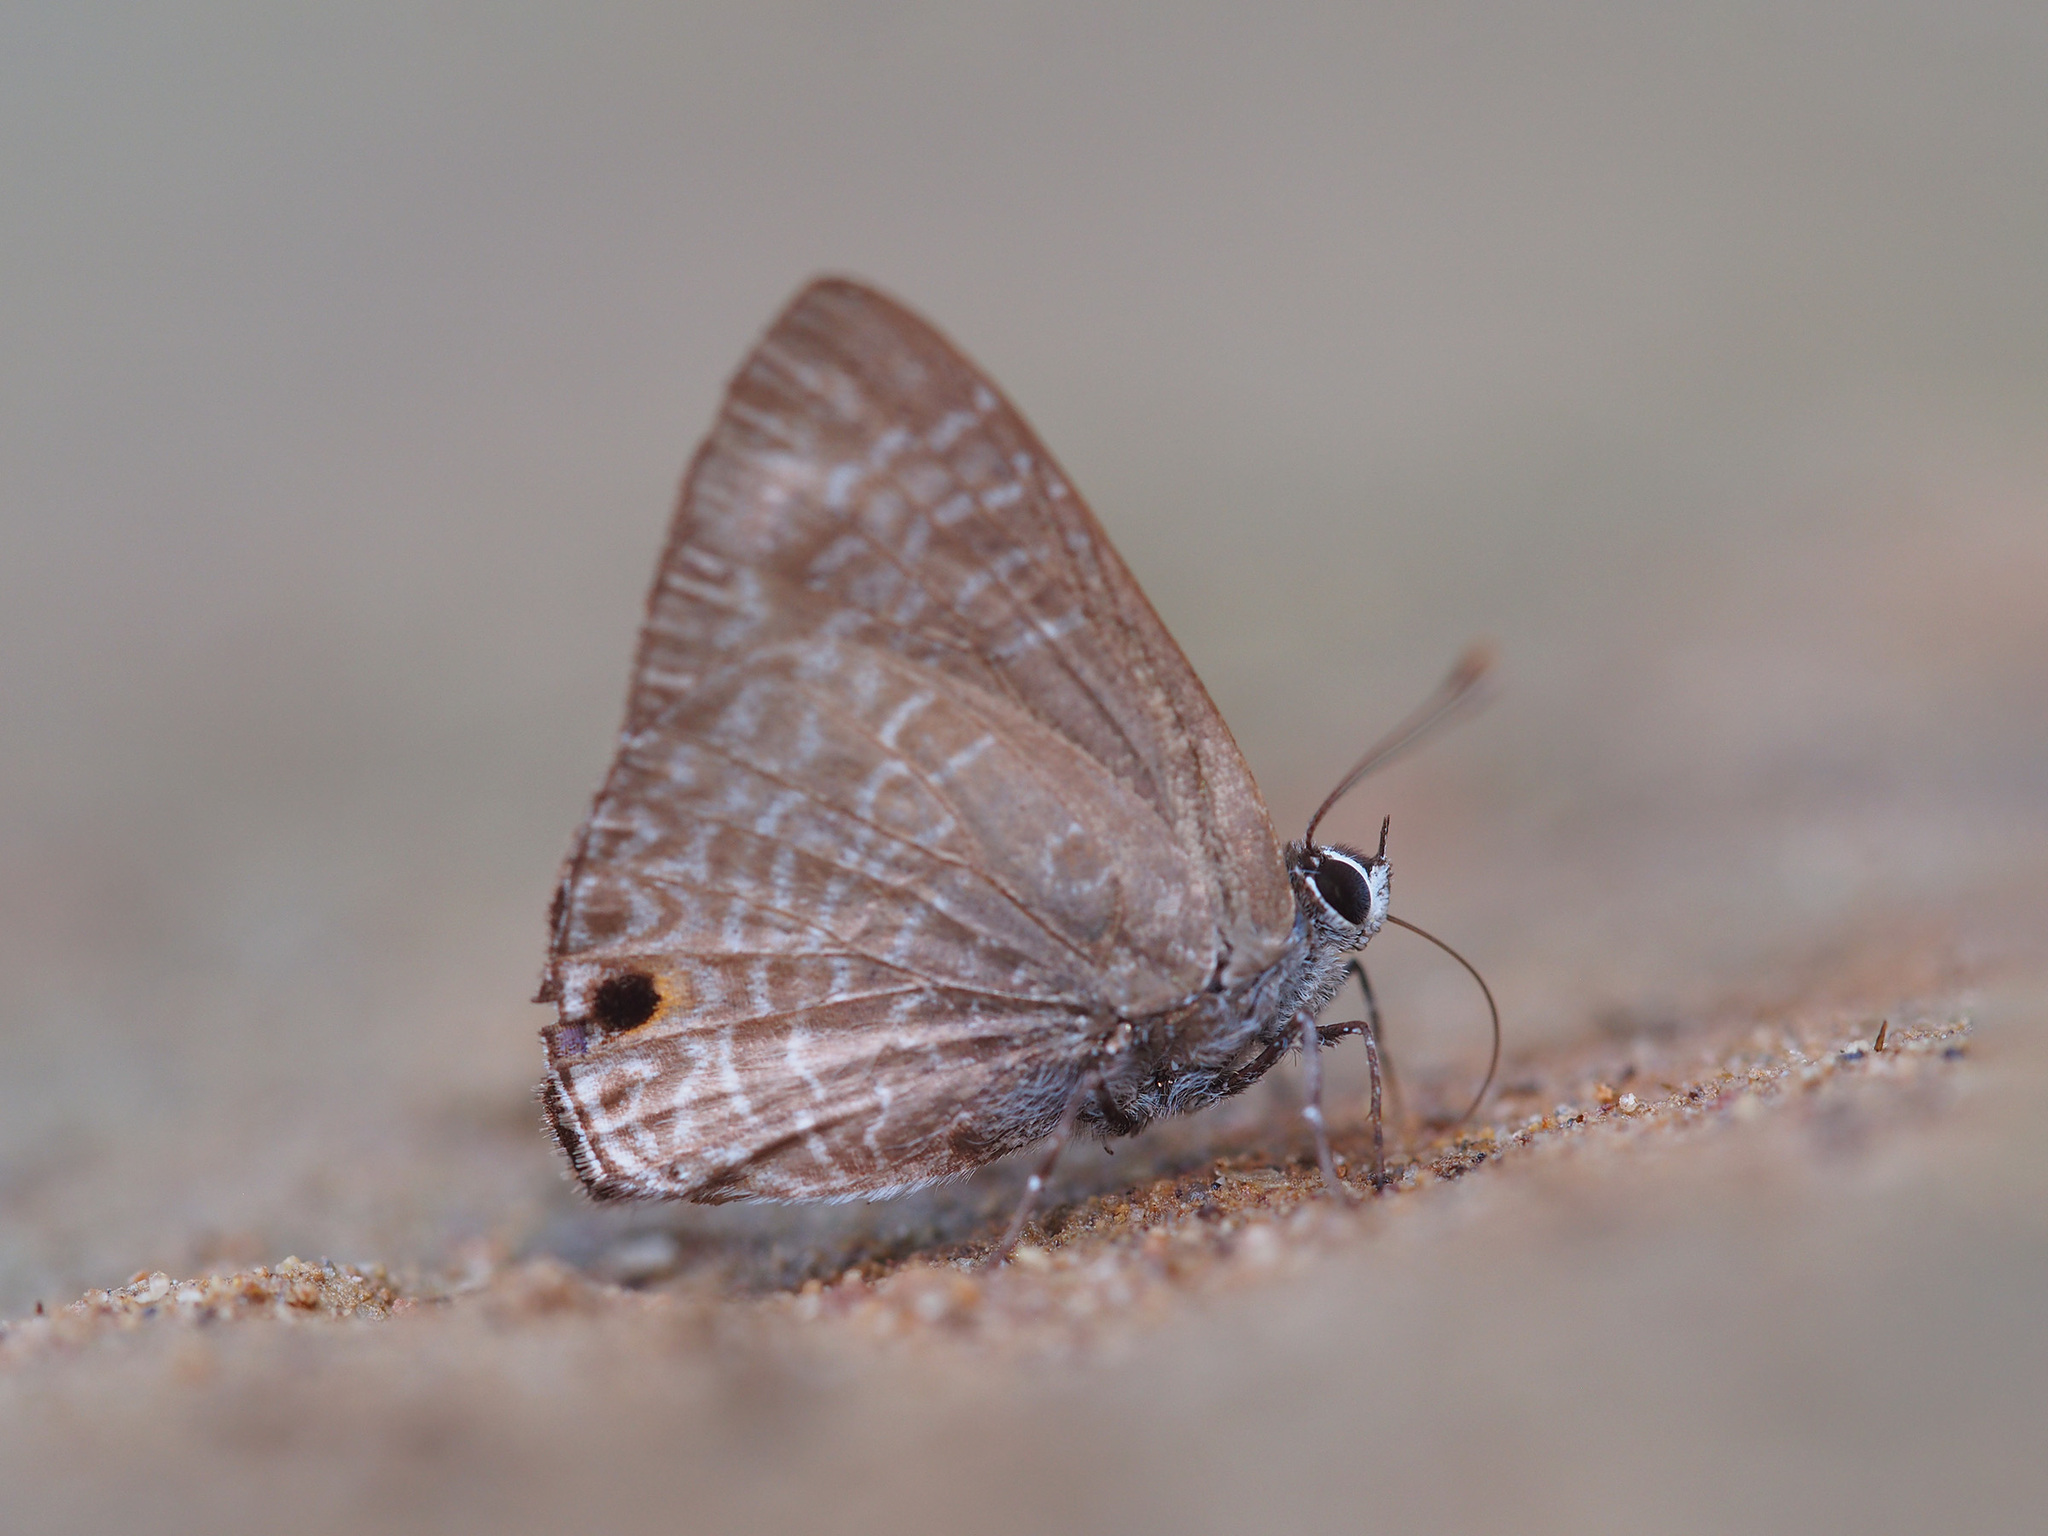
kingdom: Animalia
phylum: Arthropoda
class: Insecta
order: Lepidoptera
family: Lycaenidae
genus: Anthene
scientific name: Anthene lycaenina
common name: Pointed ciliate blue
